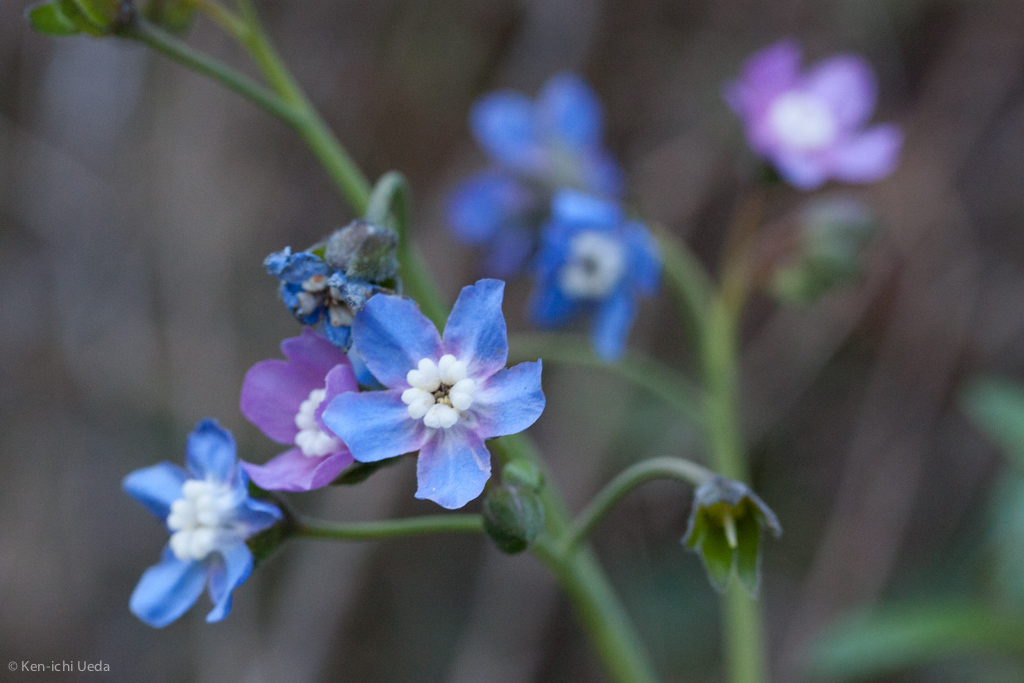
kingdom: Plantae
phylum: Tracheophyta
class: Magnoliopsida
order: Boraginales
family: Boraginaceae
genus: Adelinia
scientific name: Adelinia grande
